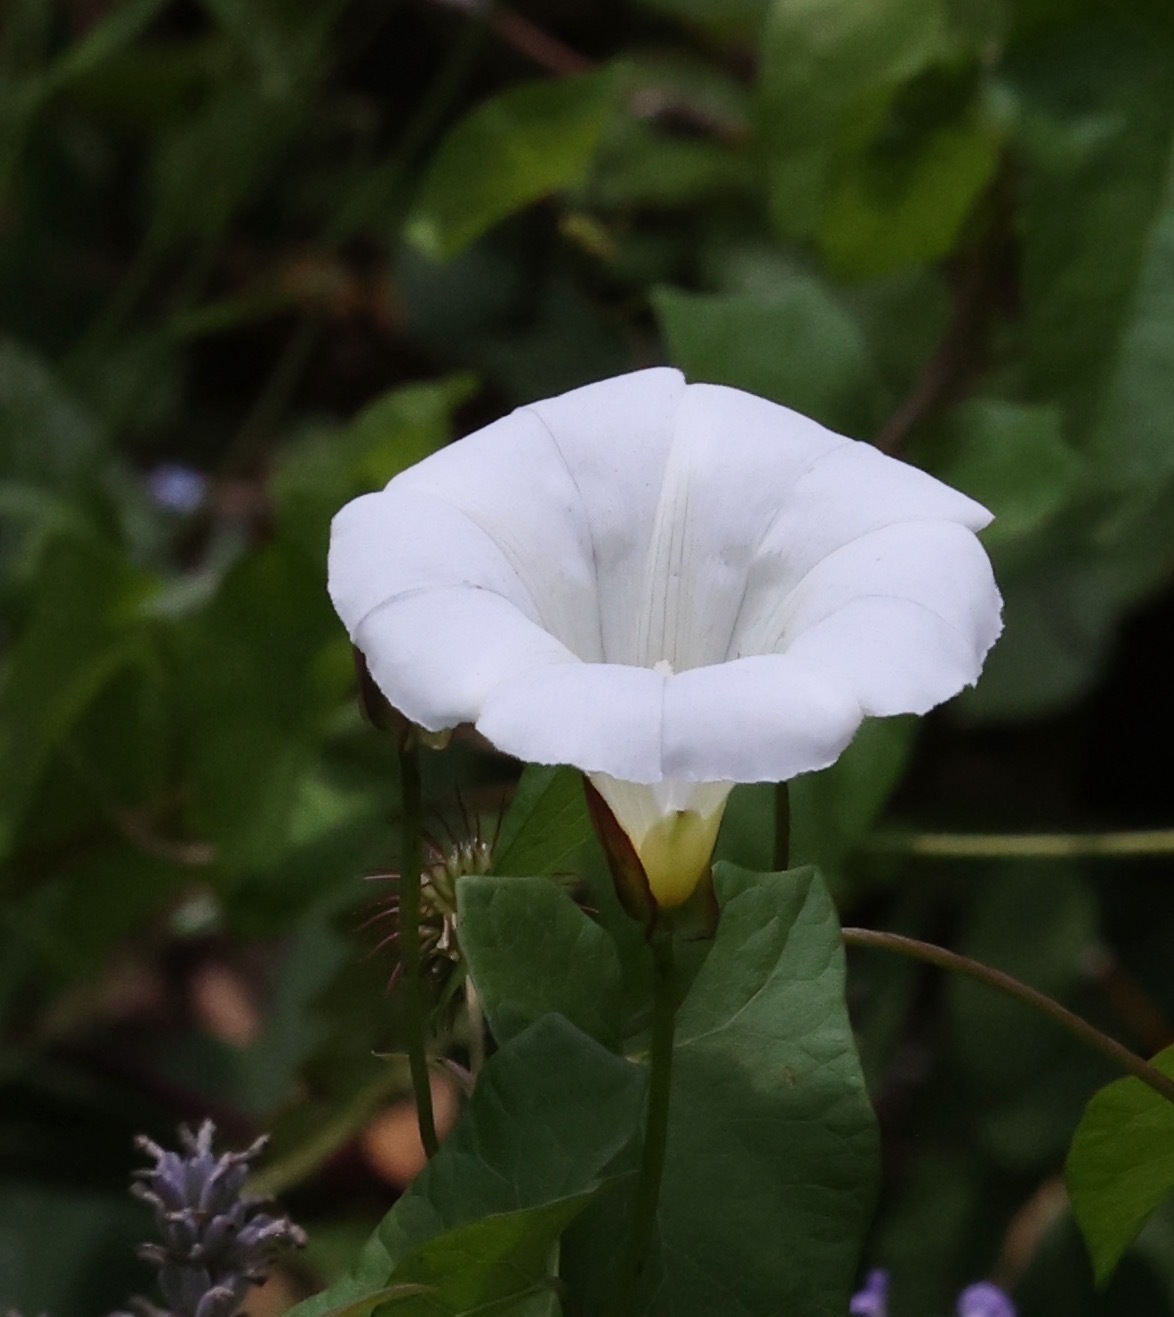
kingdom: Plantae
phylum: Tracheophyta
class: Magnoliopsida
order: Solanales
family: Convolvulaceae
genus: Calystegia
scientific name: Calystegia sepium
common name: Hedge bindweed
